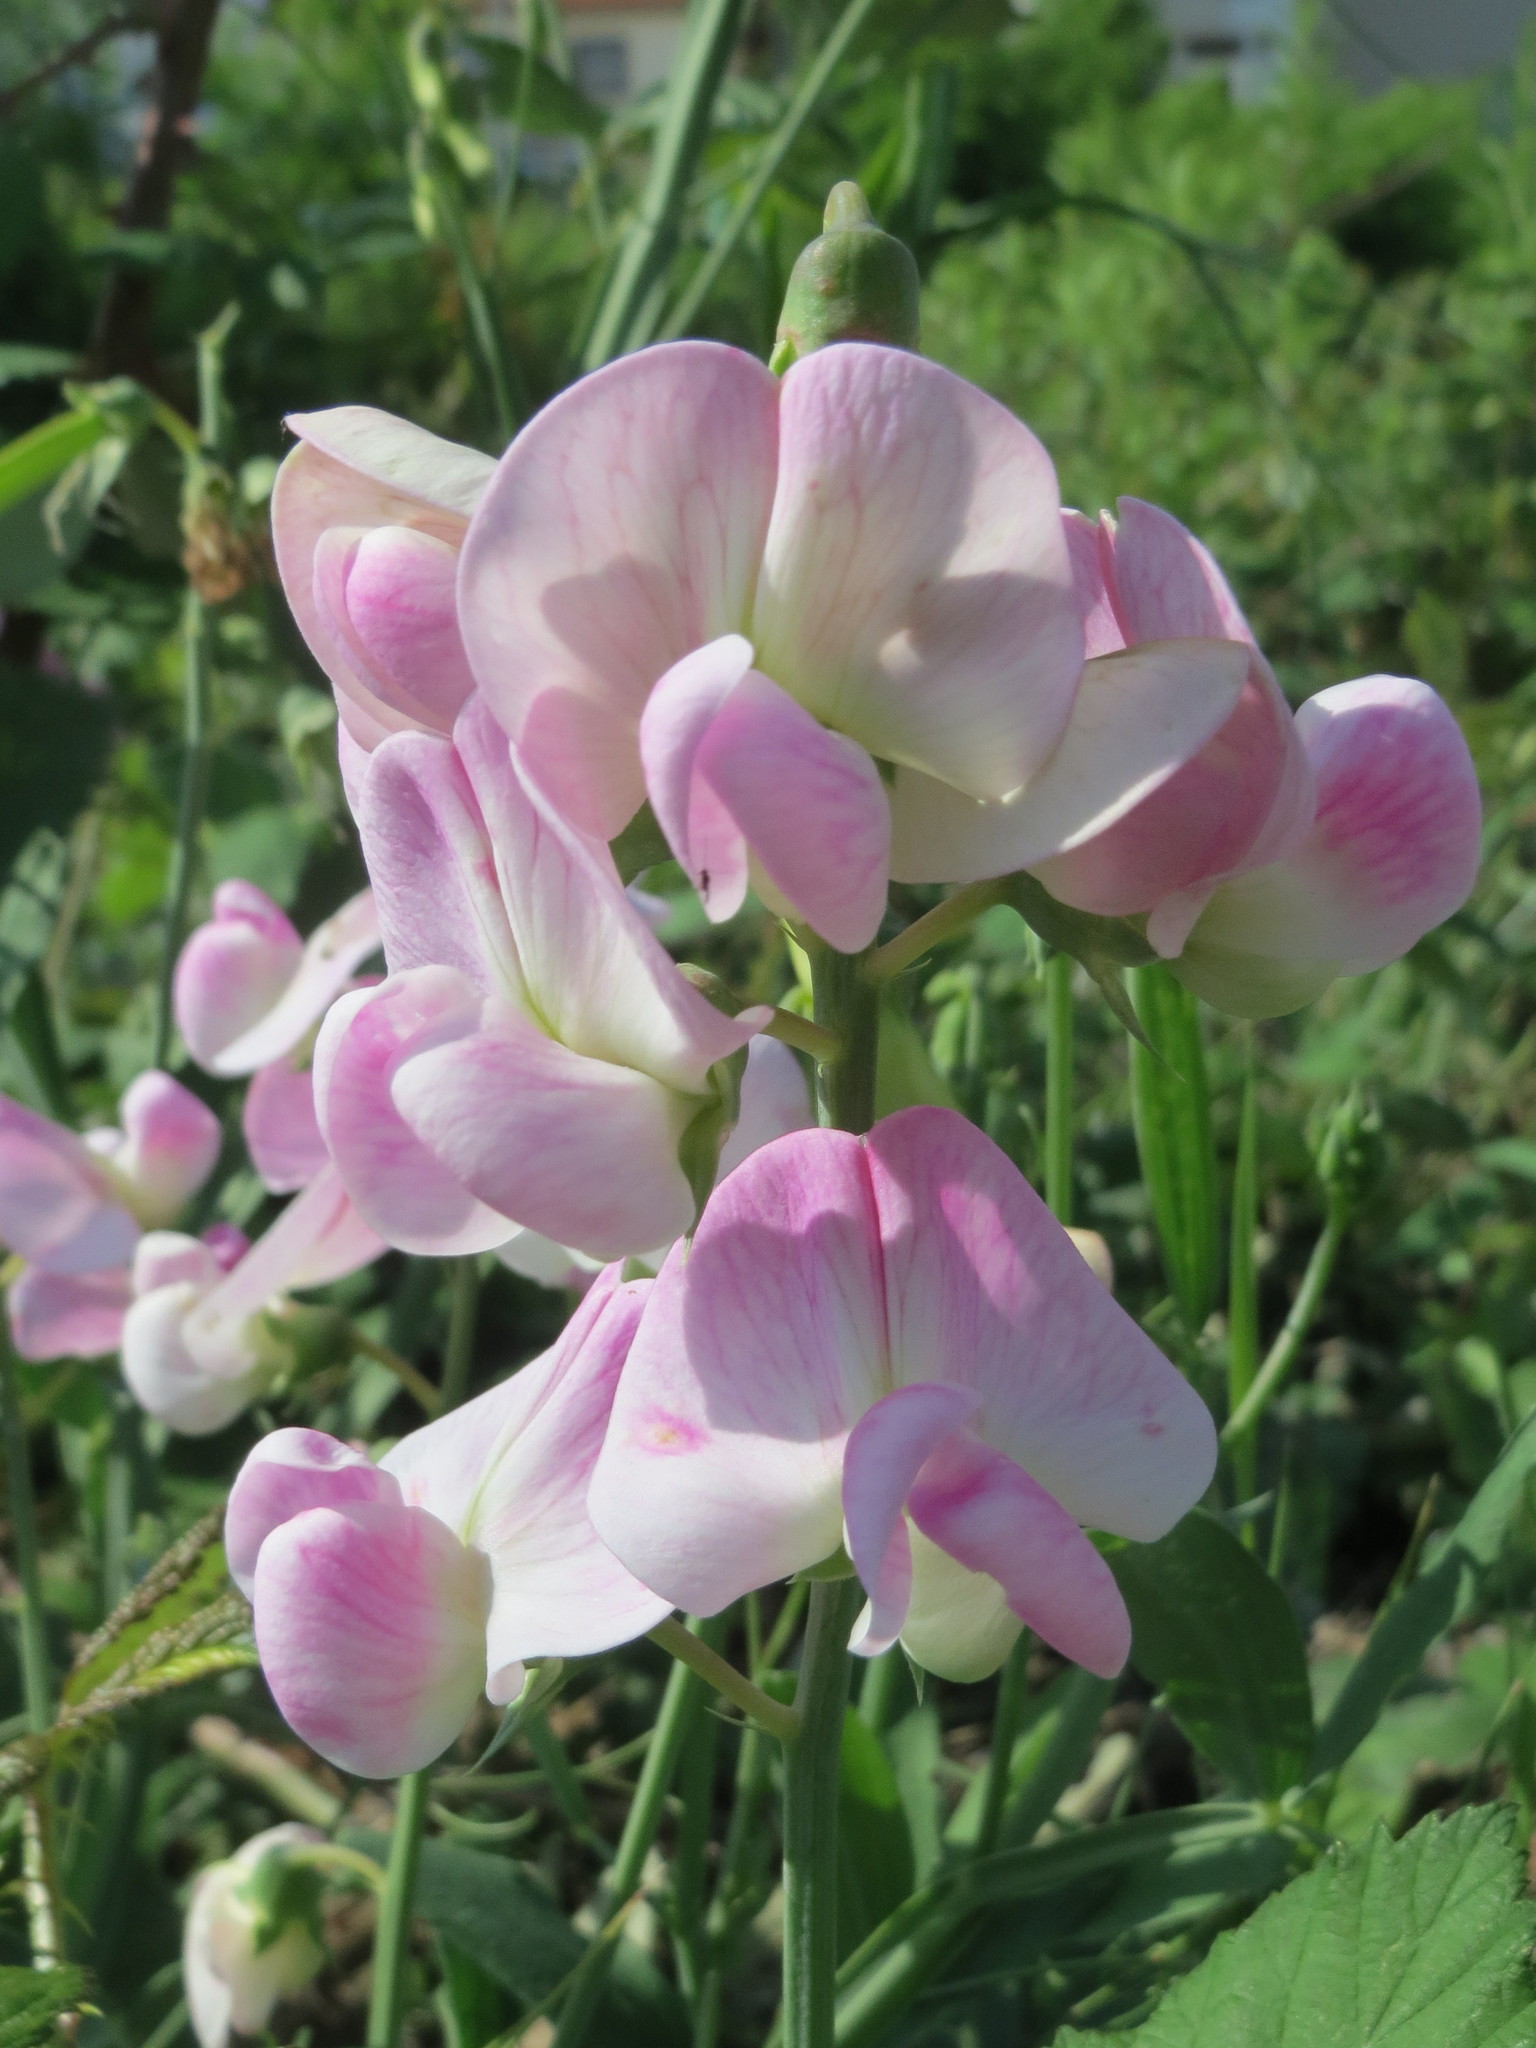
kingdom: Plantae
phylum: Tracheophyta
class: Magnoliopsida
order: Fabales
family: Fabaceae
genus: Lathyrus
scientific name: Lathyrus latifolius
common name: Perennial pea
